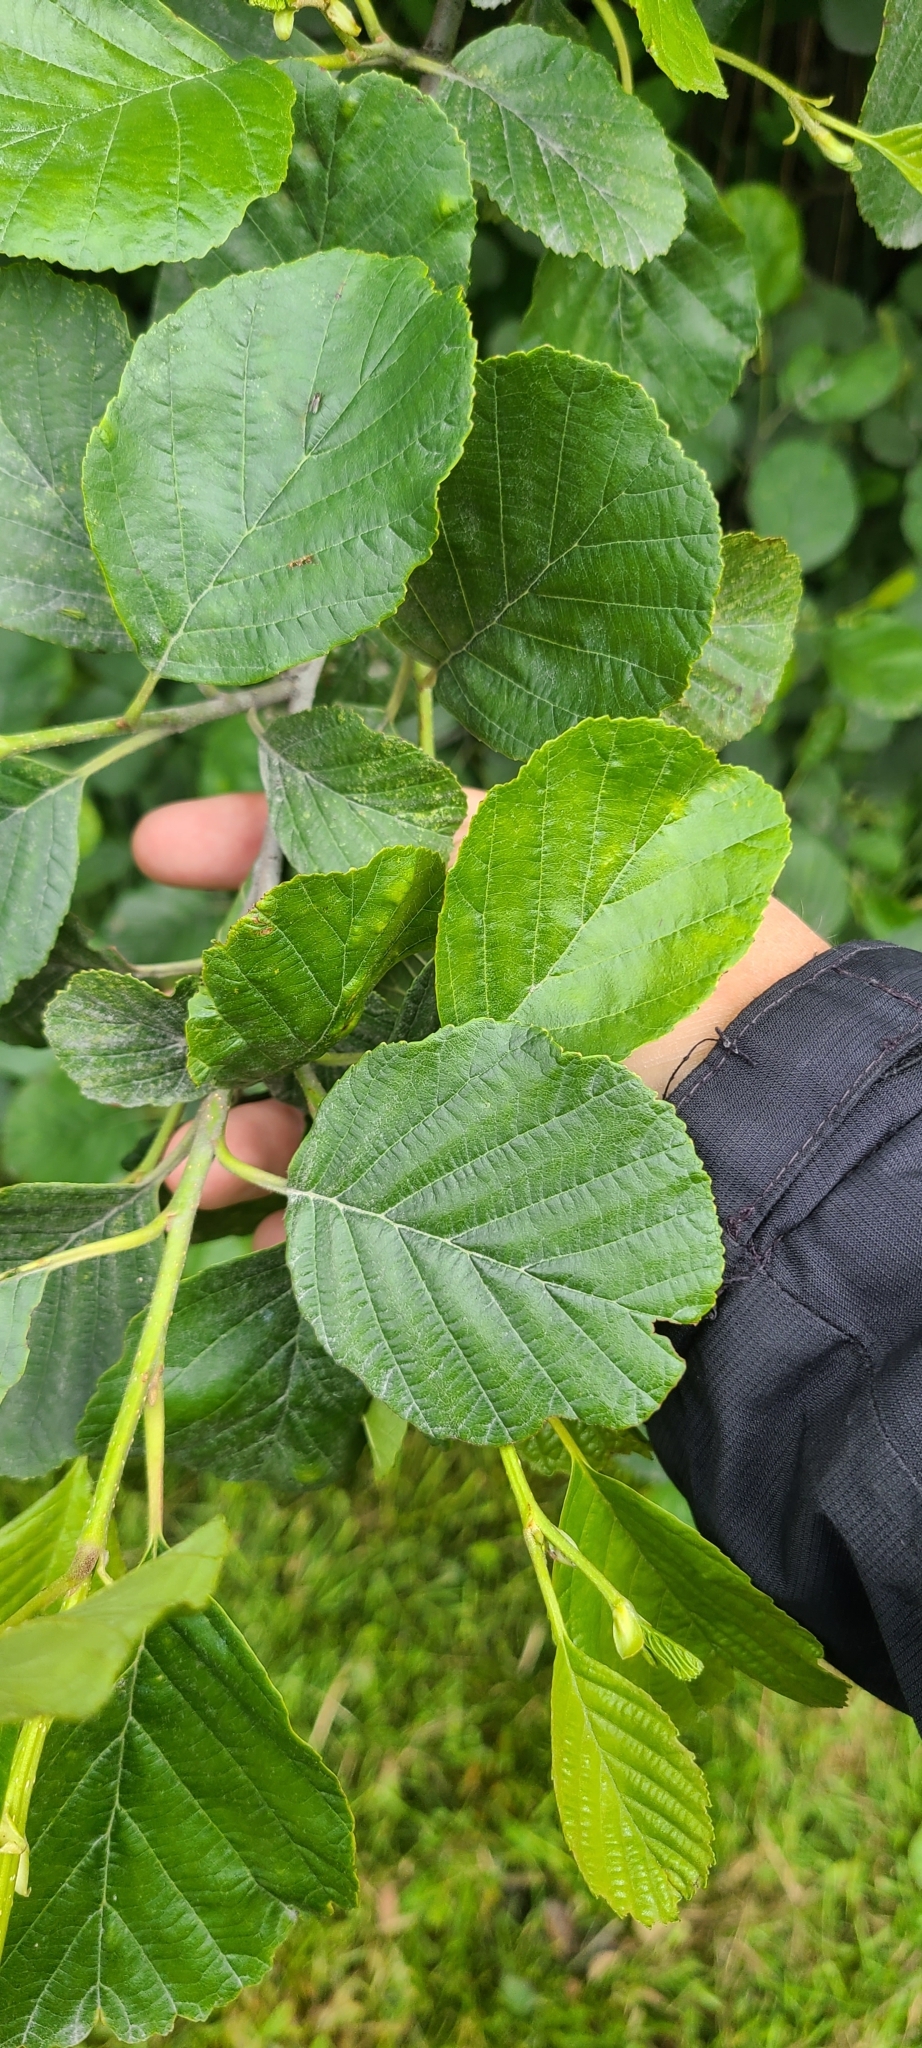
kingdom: Plantae
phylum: Tracheophyta
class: Magnoliopsida
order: Fagales
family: Betulaceae
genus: Alnus
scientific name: Alnus glutinosa
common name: Black alder
